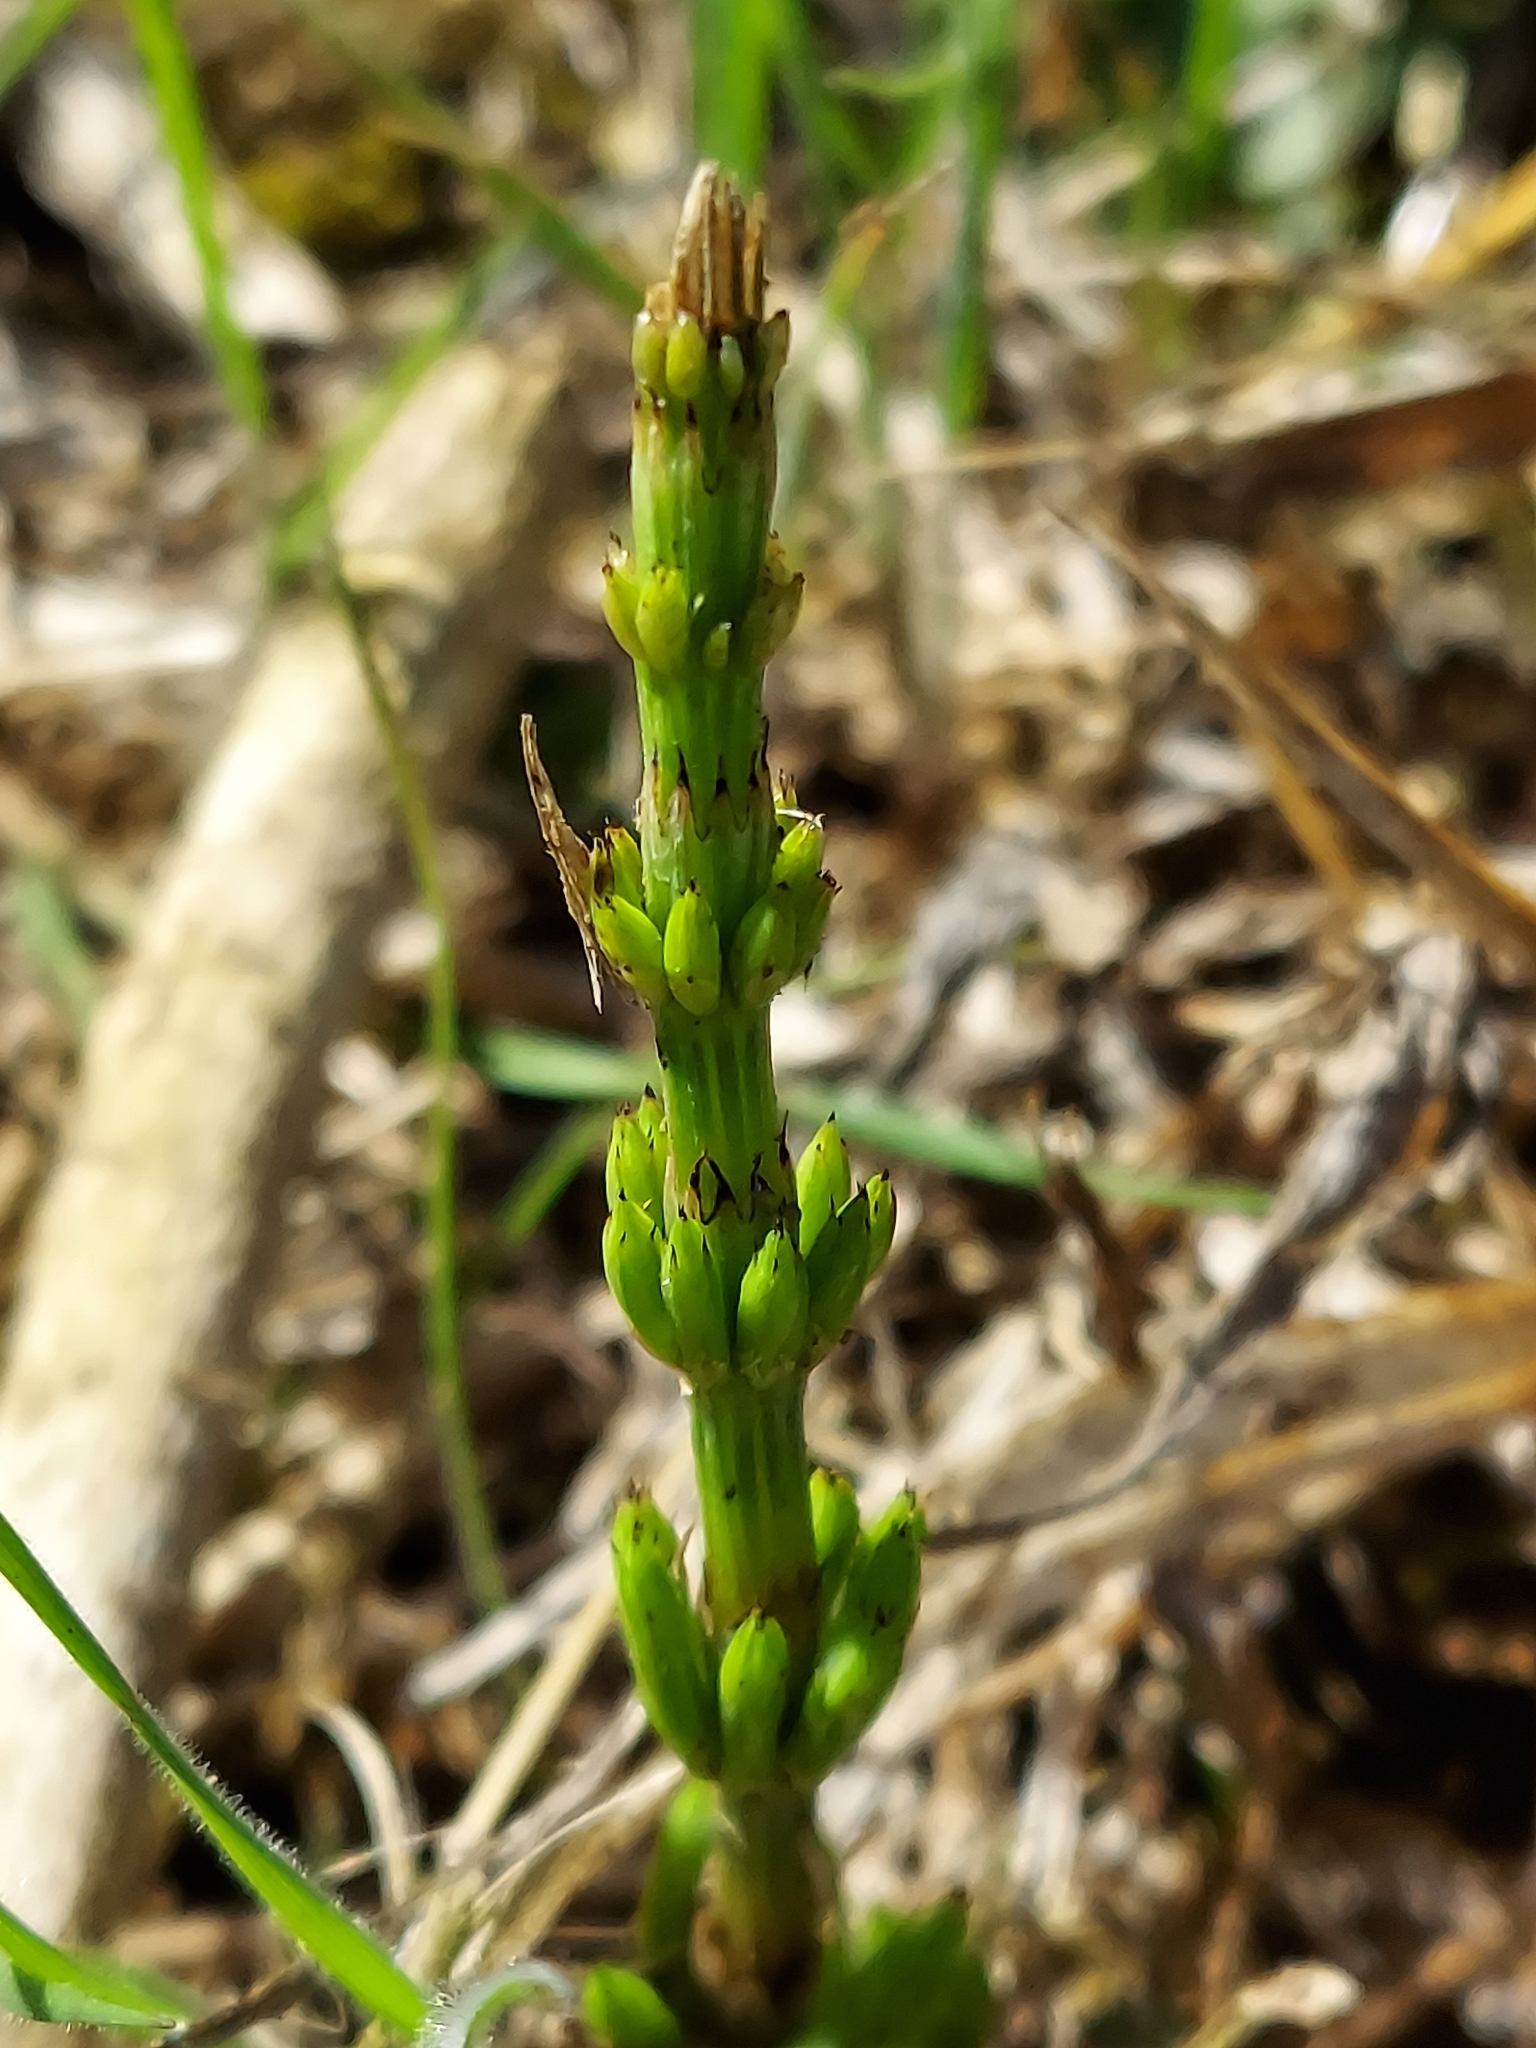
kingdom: Plantae
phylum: Tracheophyta
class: Polypodiopsida
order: Equisetales
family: Equisetaceae
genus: Equisetum
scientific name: Equisetum arvense
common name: Field horsetail
